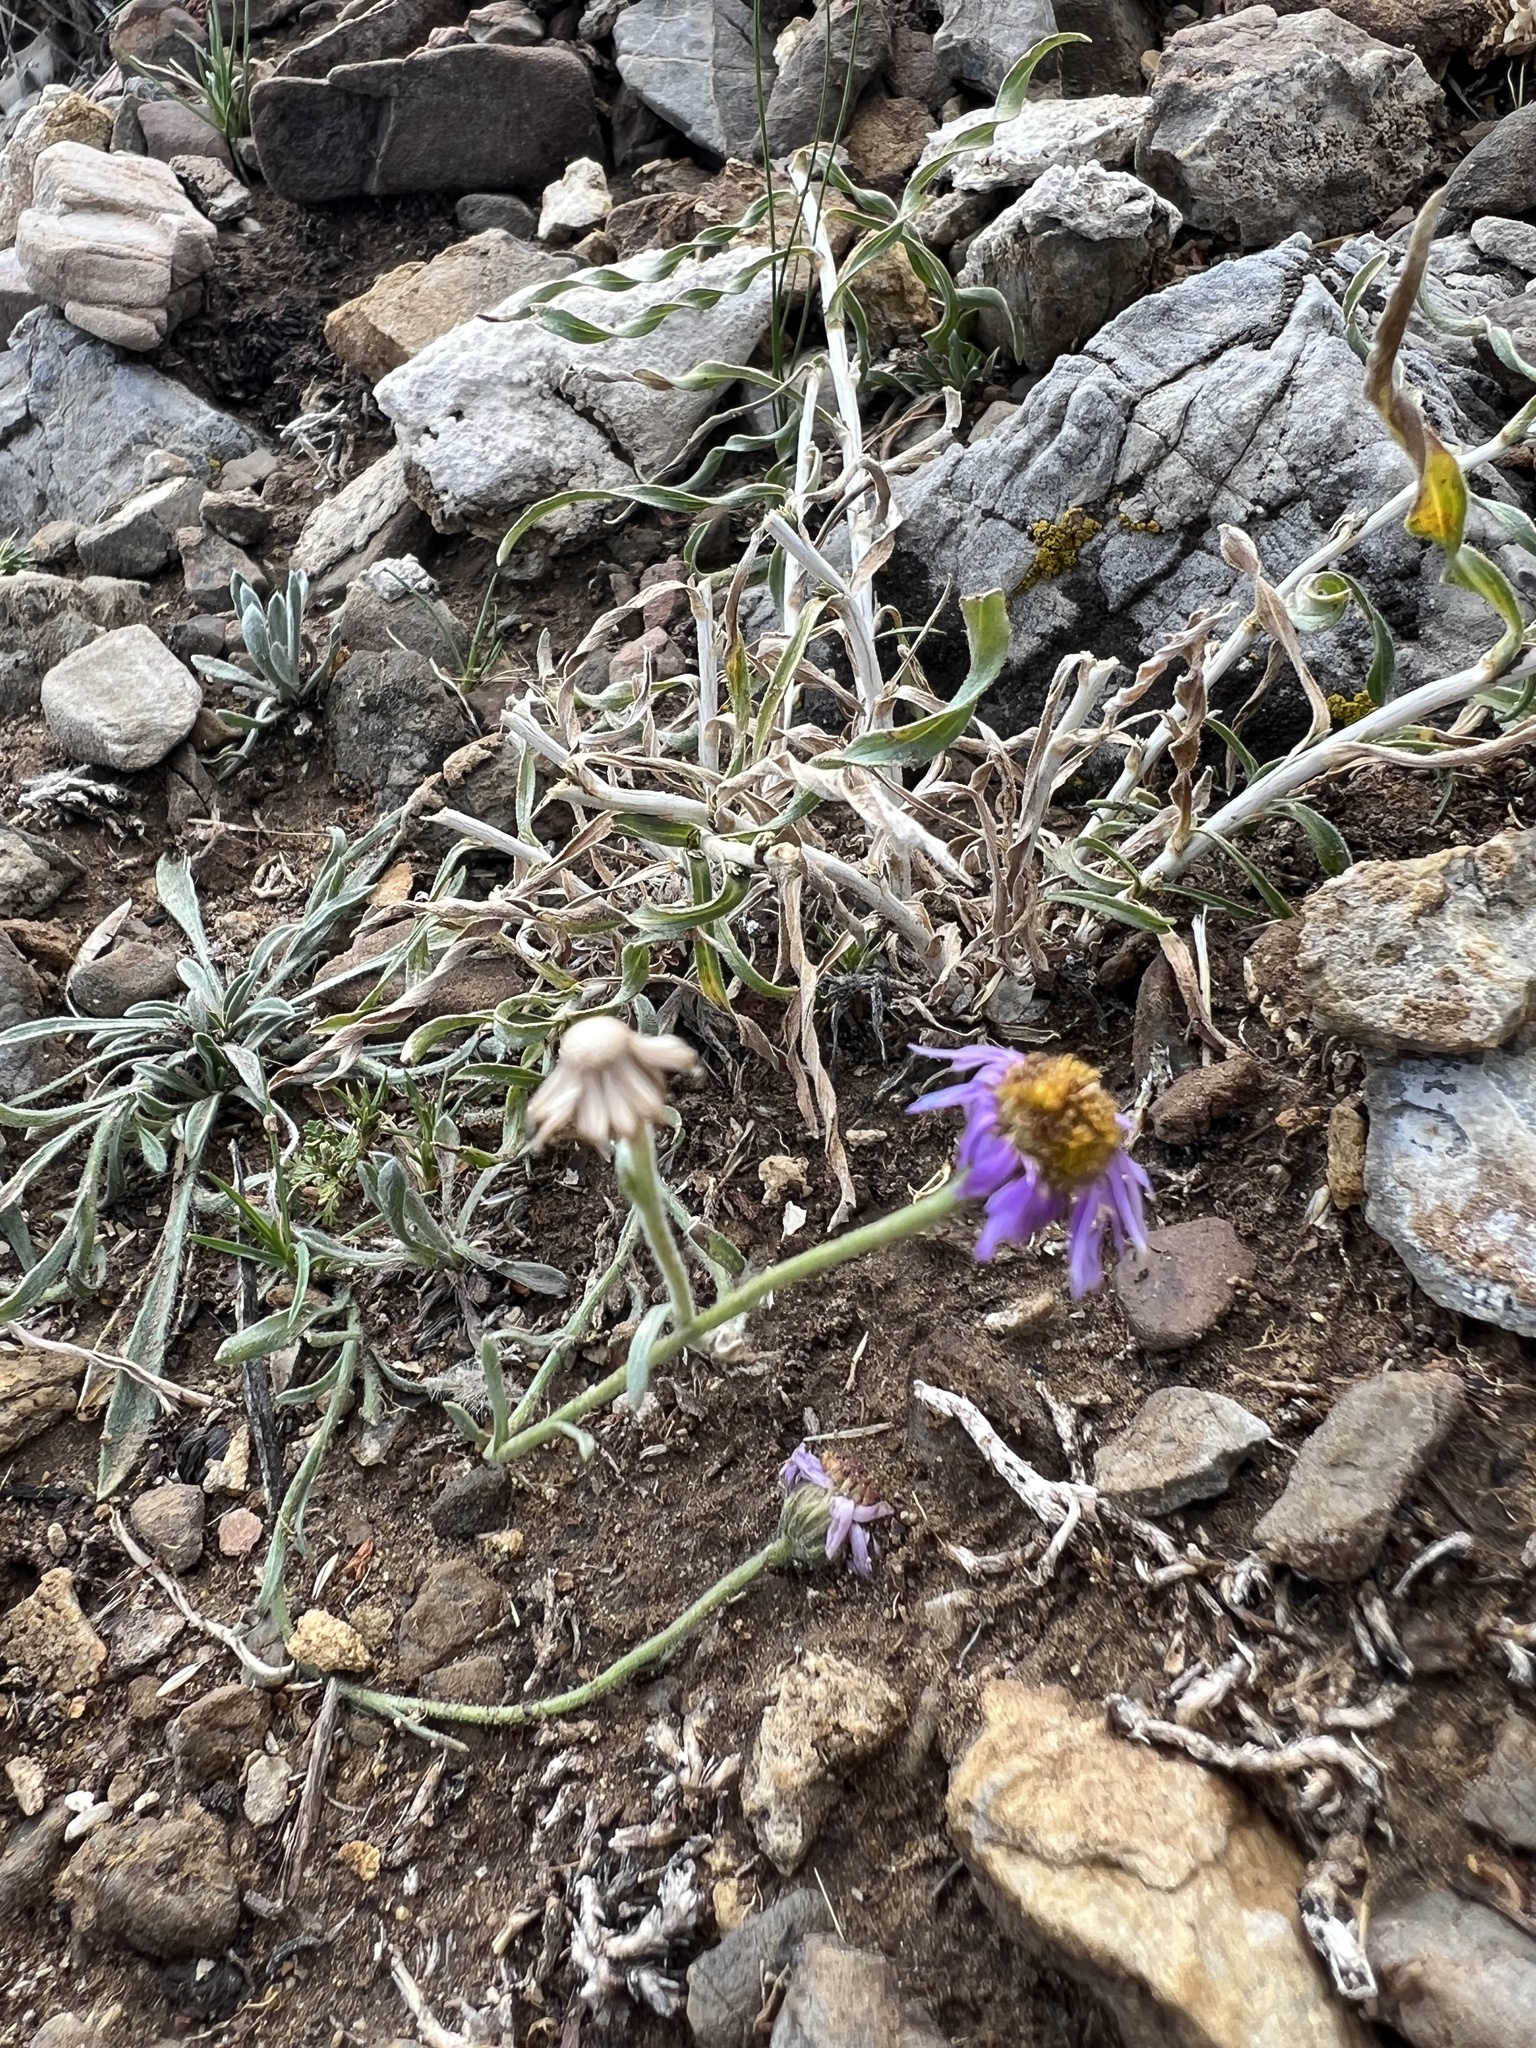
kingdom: Plantae
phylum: Tracheophyta
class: Magnoliopsida
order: Asterales
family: Asteraceae
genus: Erigeron
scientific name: Erigeron clokeyi
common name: Clokey's fleabane
